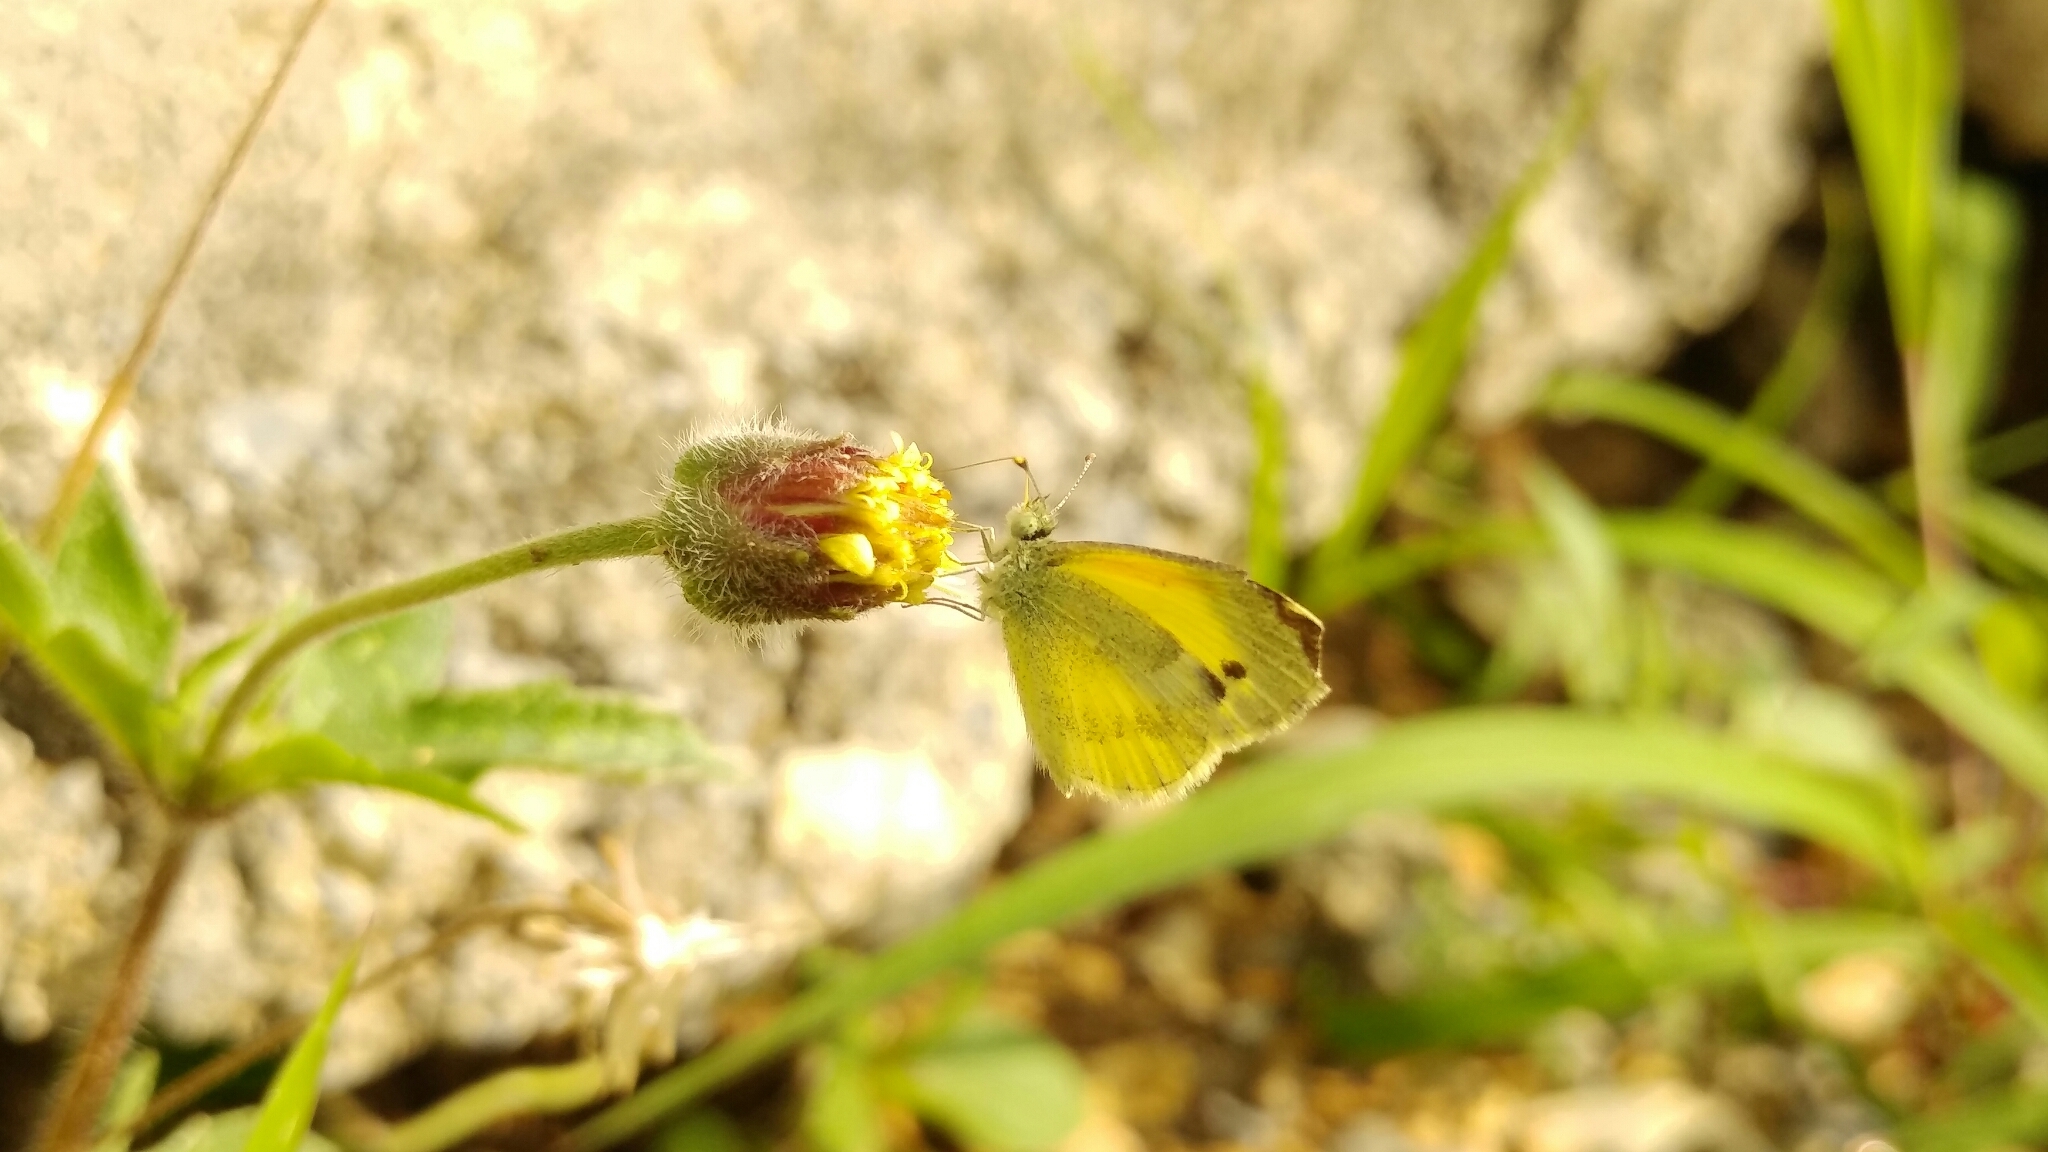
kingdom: Animalia
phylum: Arthropoda
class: Insecta
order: Lepidoptera
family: Pieridae
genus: Nathalis
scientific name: Nathalis iole
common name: Dainty sulphur
